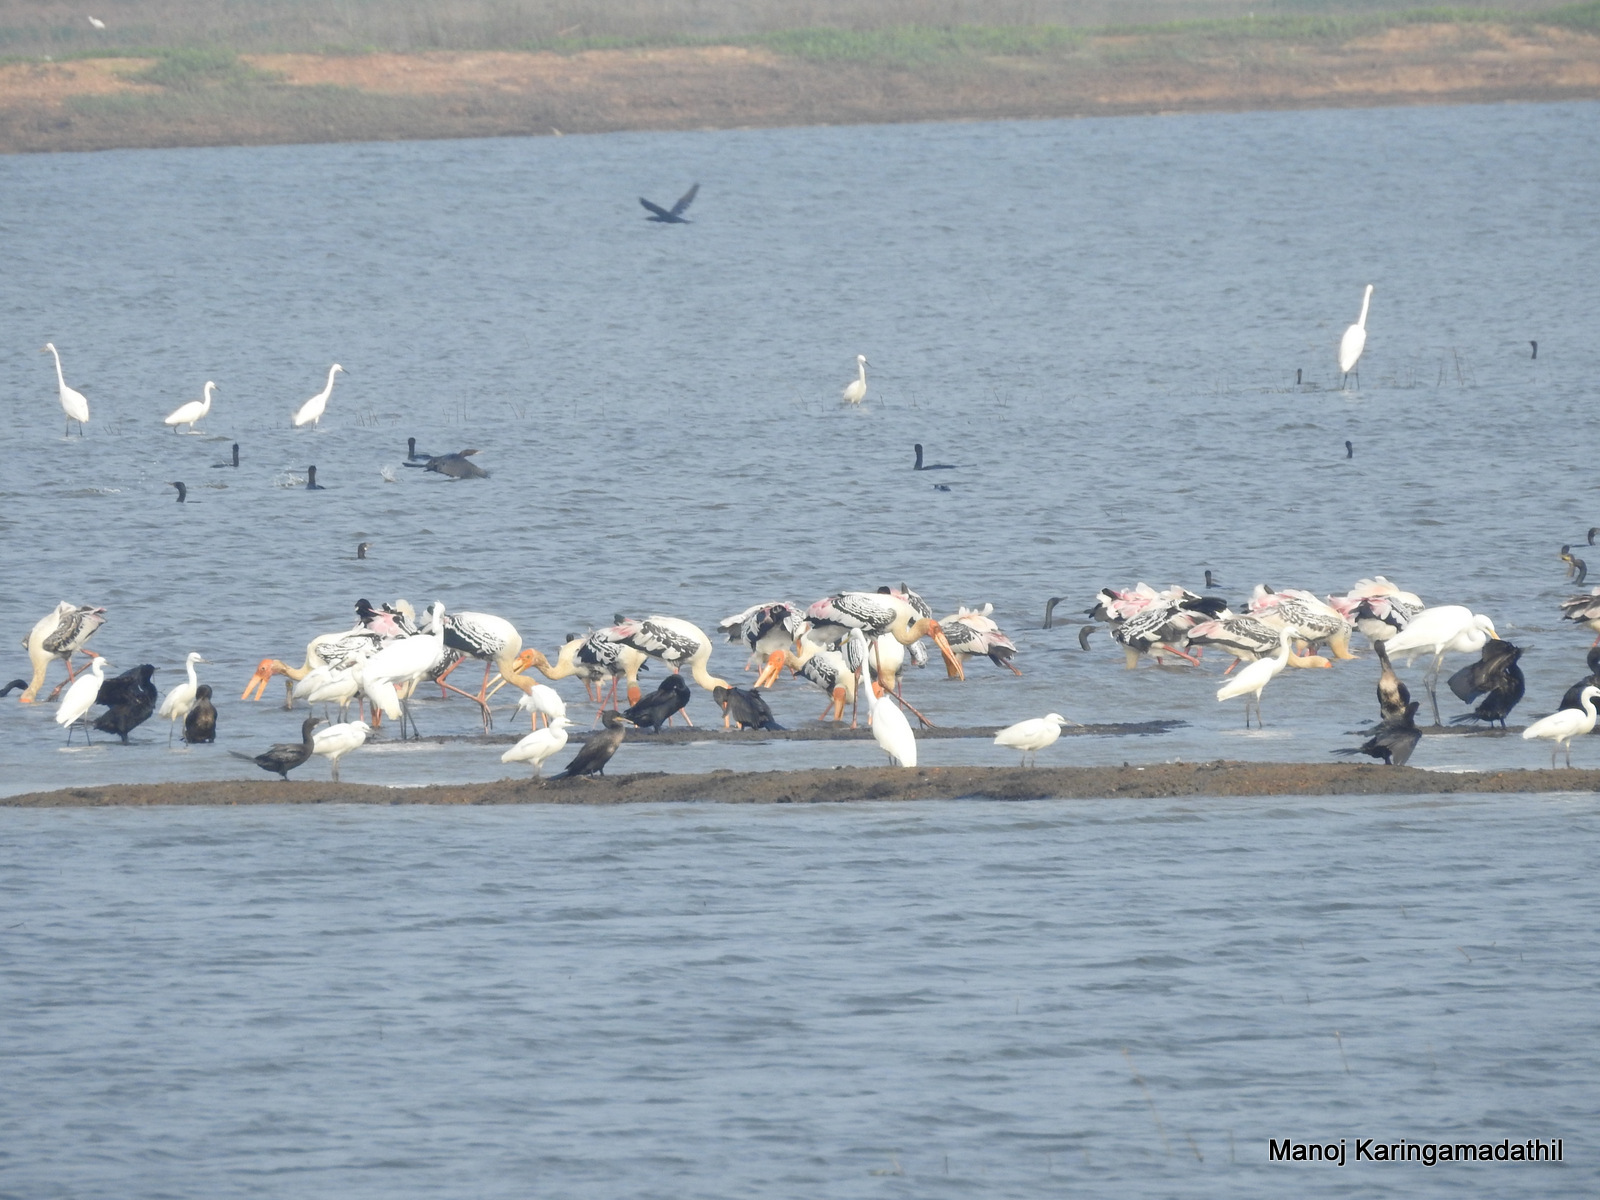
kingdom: Animalia
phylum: Chordata
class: Aves
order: Ciconiiformes
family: Ciconiidae
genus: Mycteria
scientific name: Mycteria leucocephala
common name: Painted stork
